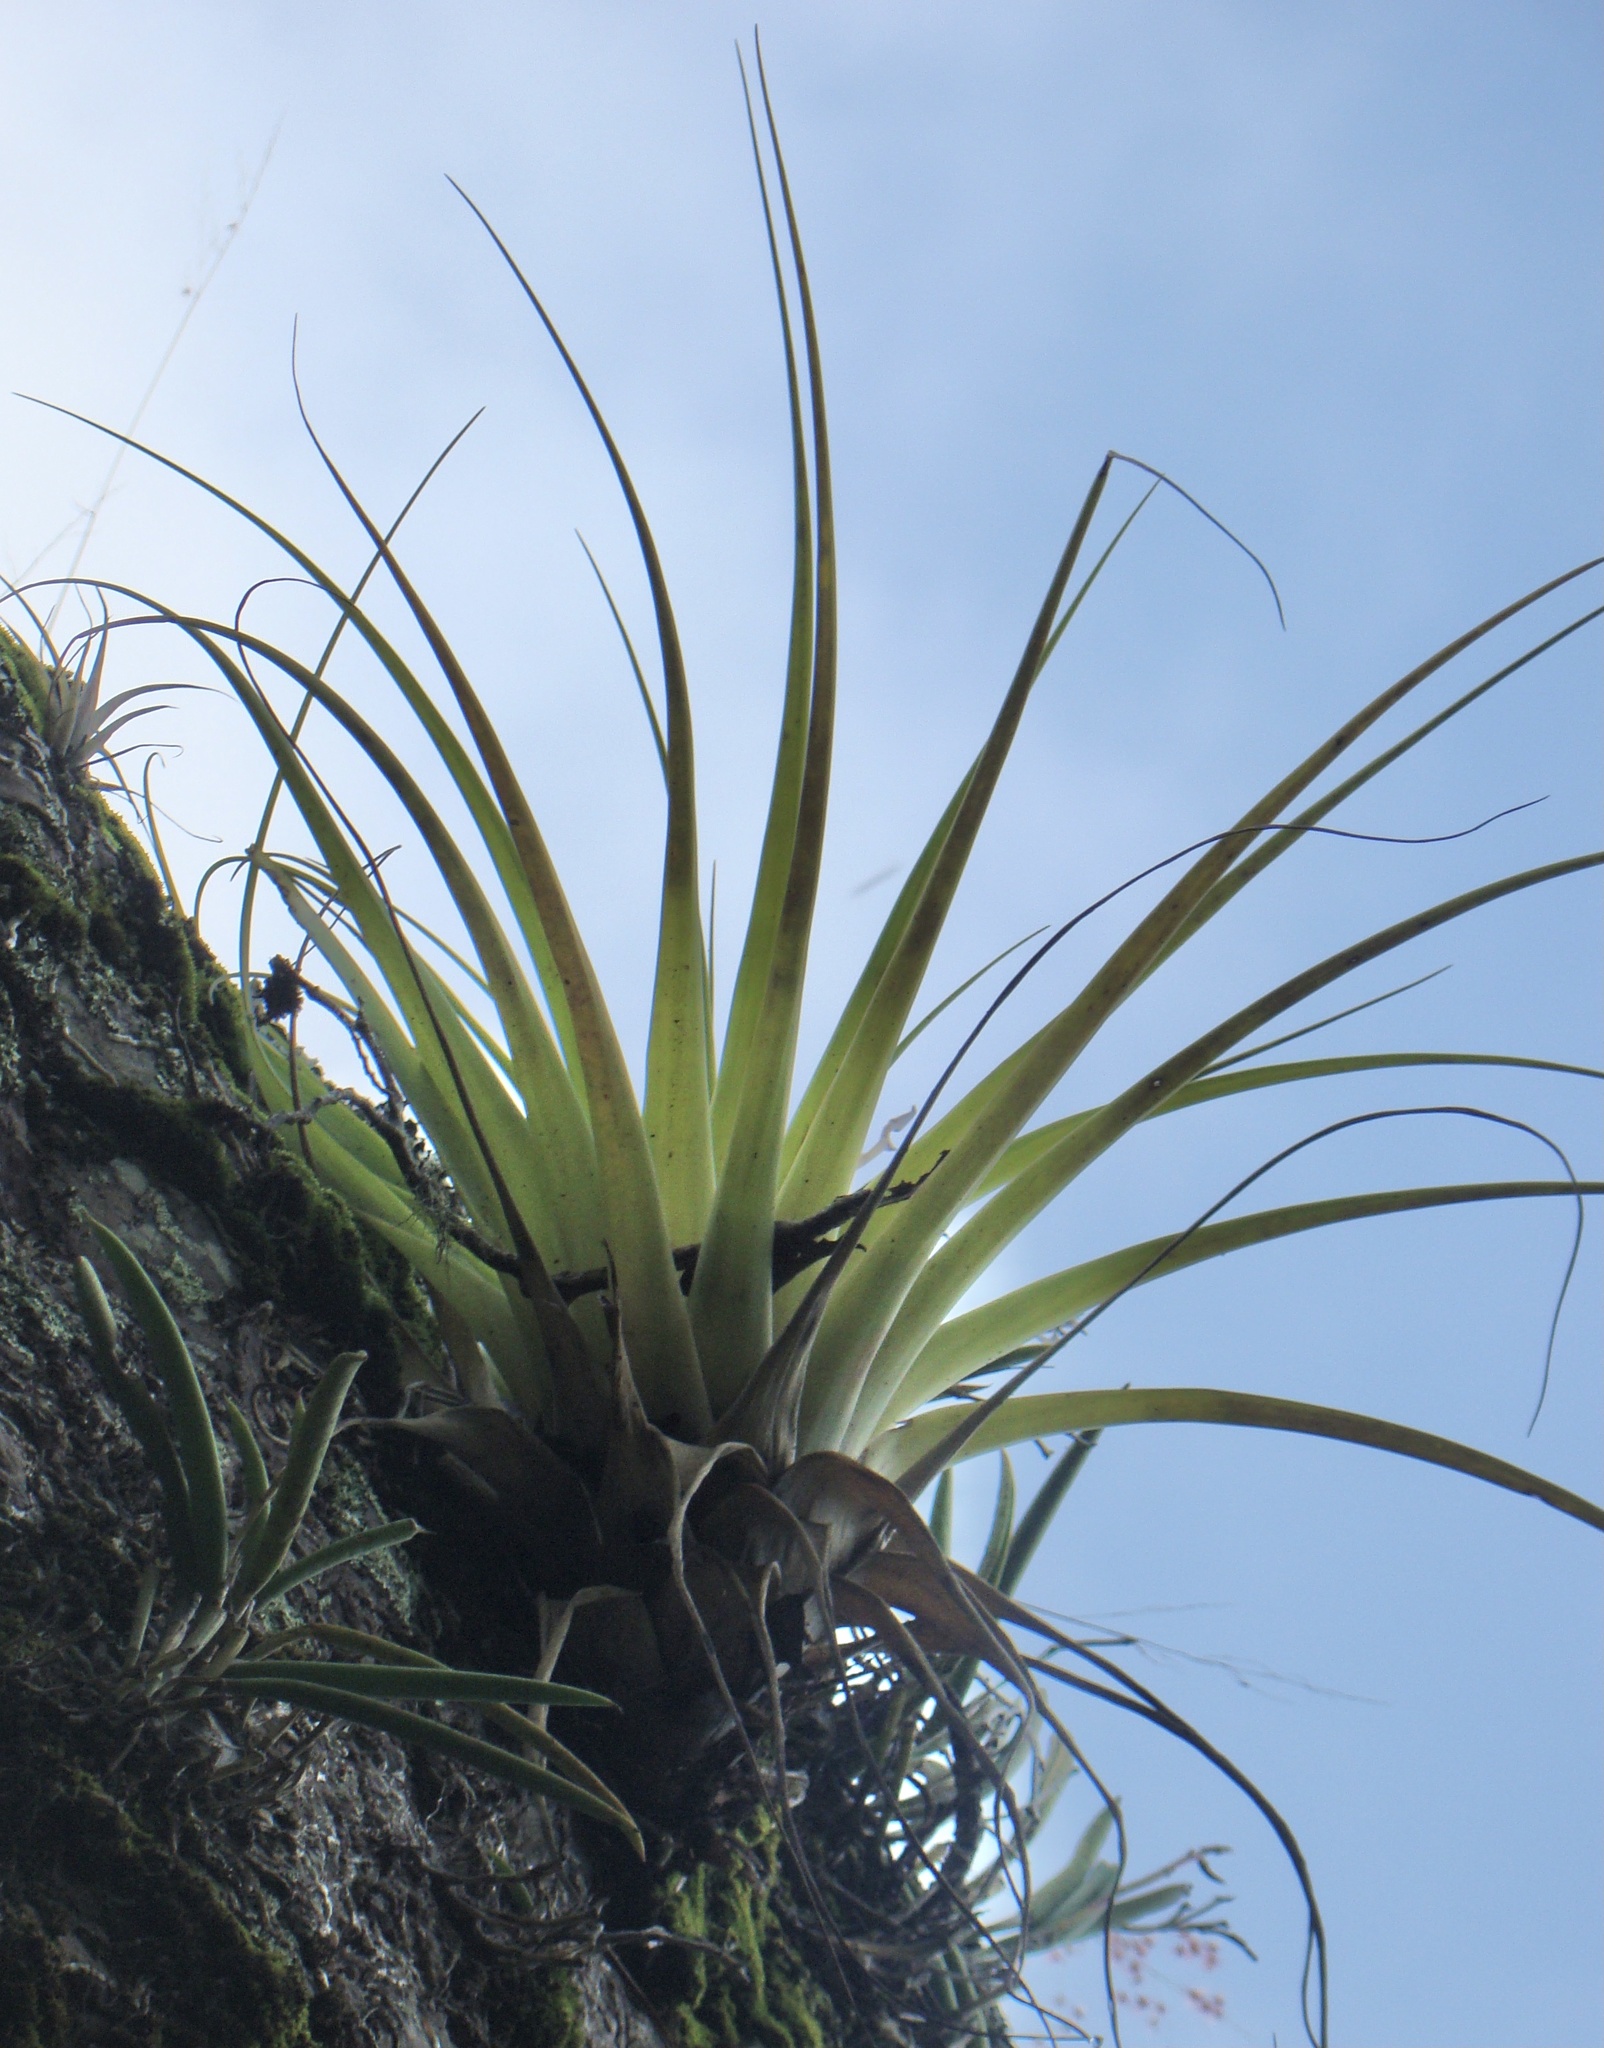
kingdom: Plantae
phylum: Tracheophyta
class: Liliopsida
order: Poales
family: Bromeliaceae
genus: Tillandsia
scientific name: Tillandsia utriculata
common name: Wild pine
